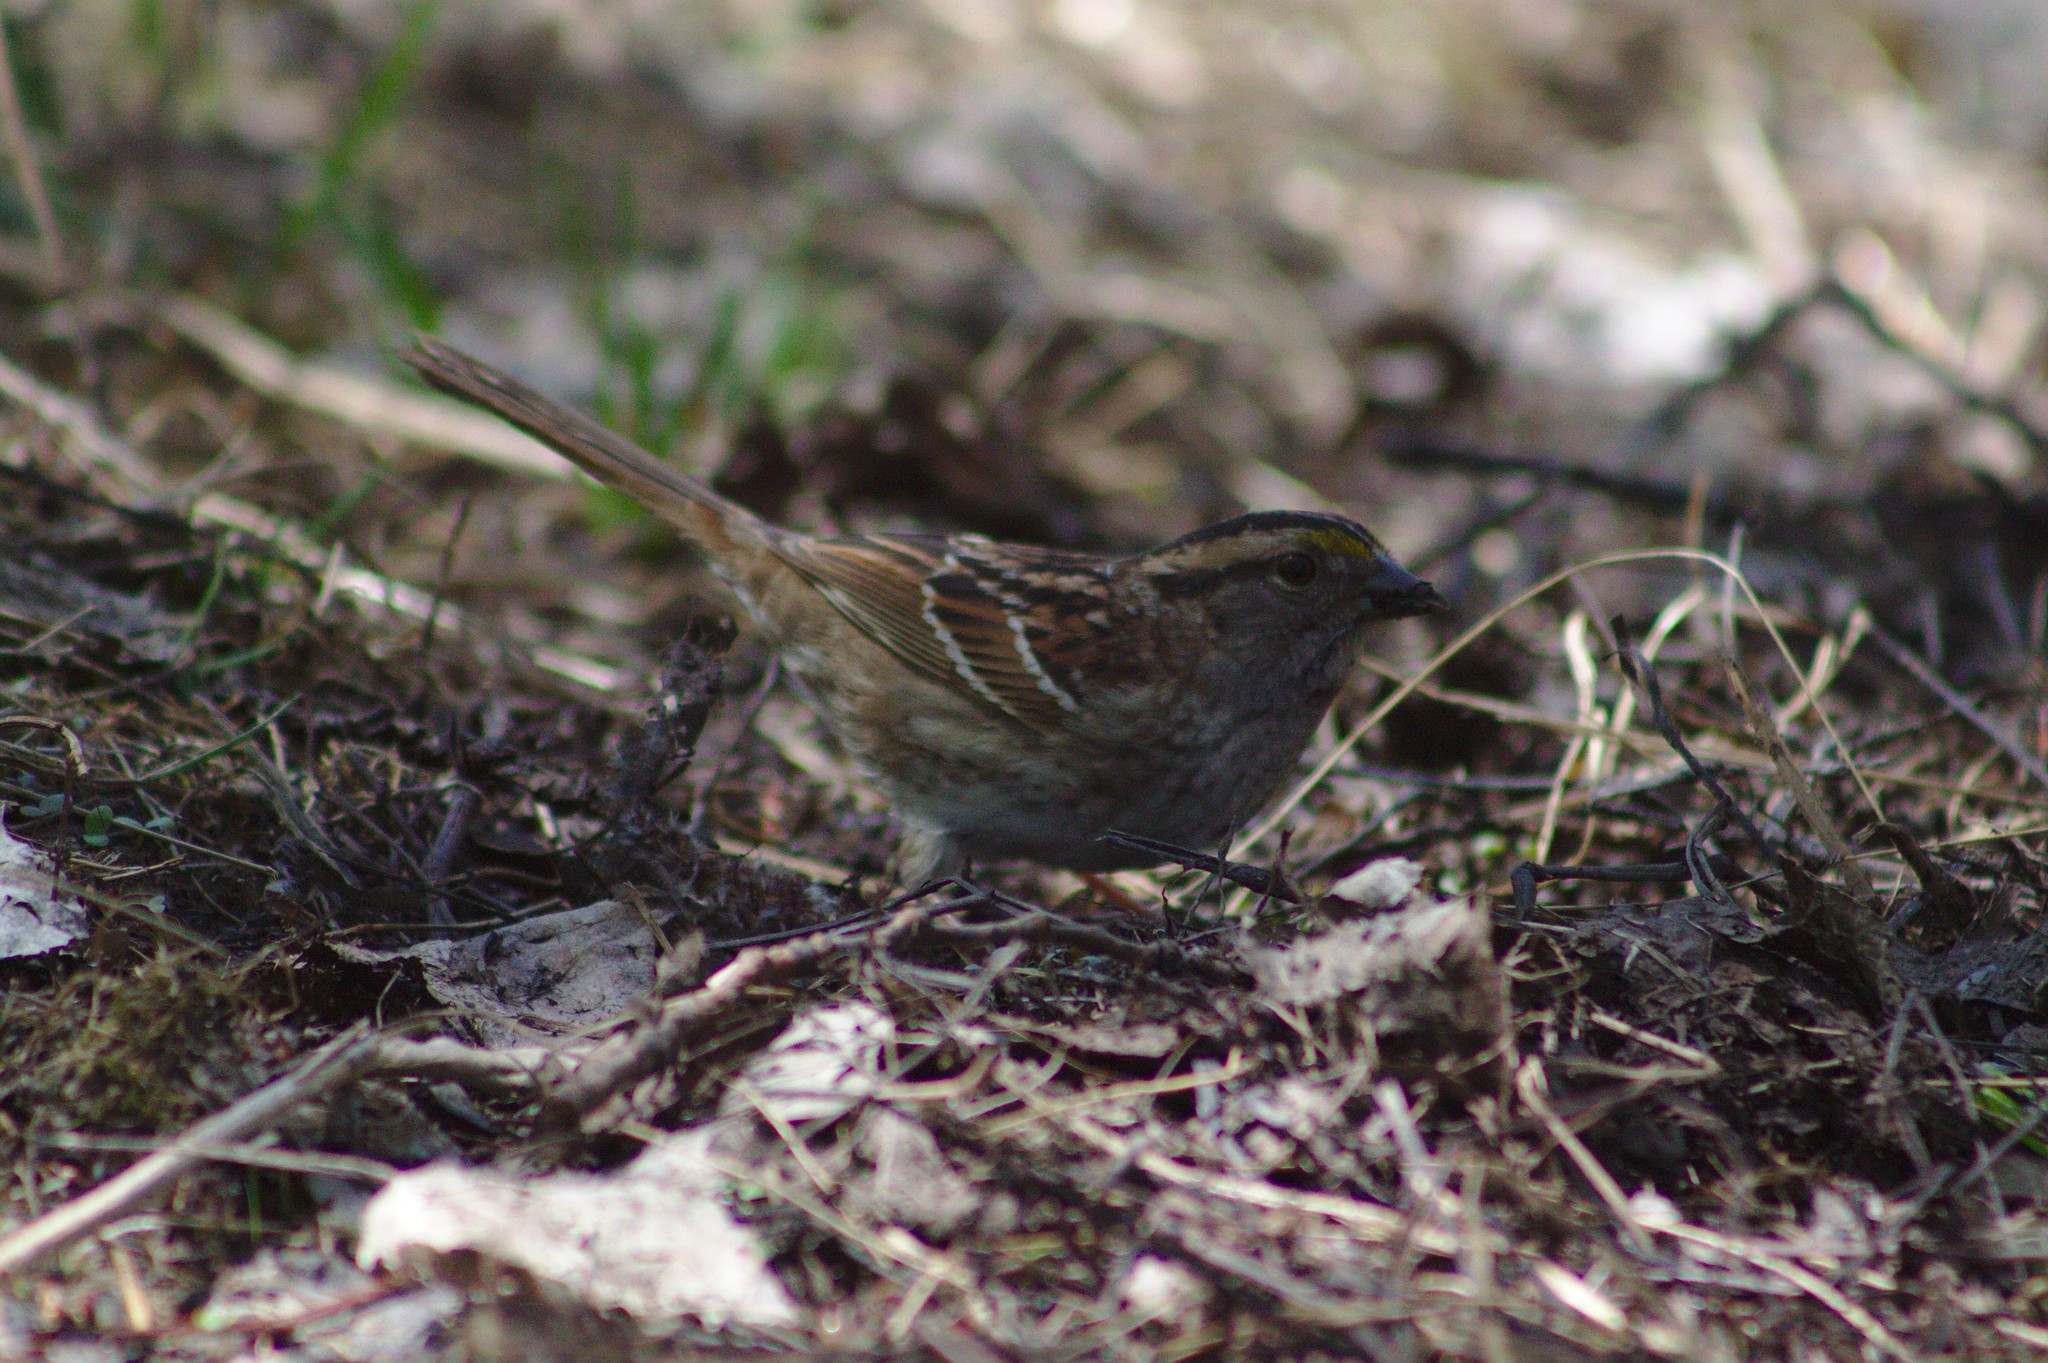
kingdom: Animalia
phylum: Chordata
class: Aves
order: Passeriformes
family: Passerellidae
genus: Zonotrichia
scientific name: Zonotrichia albicollis
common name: White-throated sparrow
